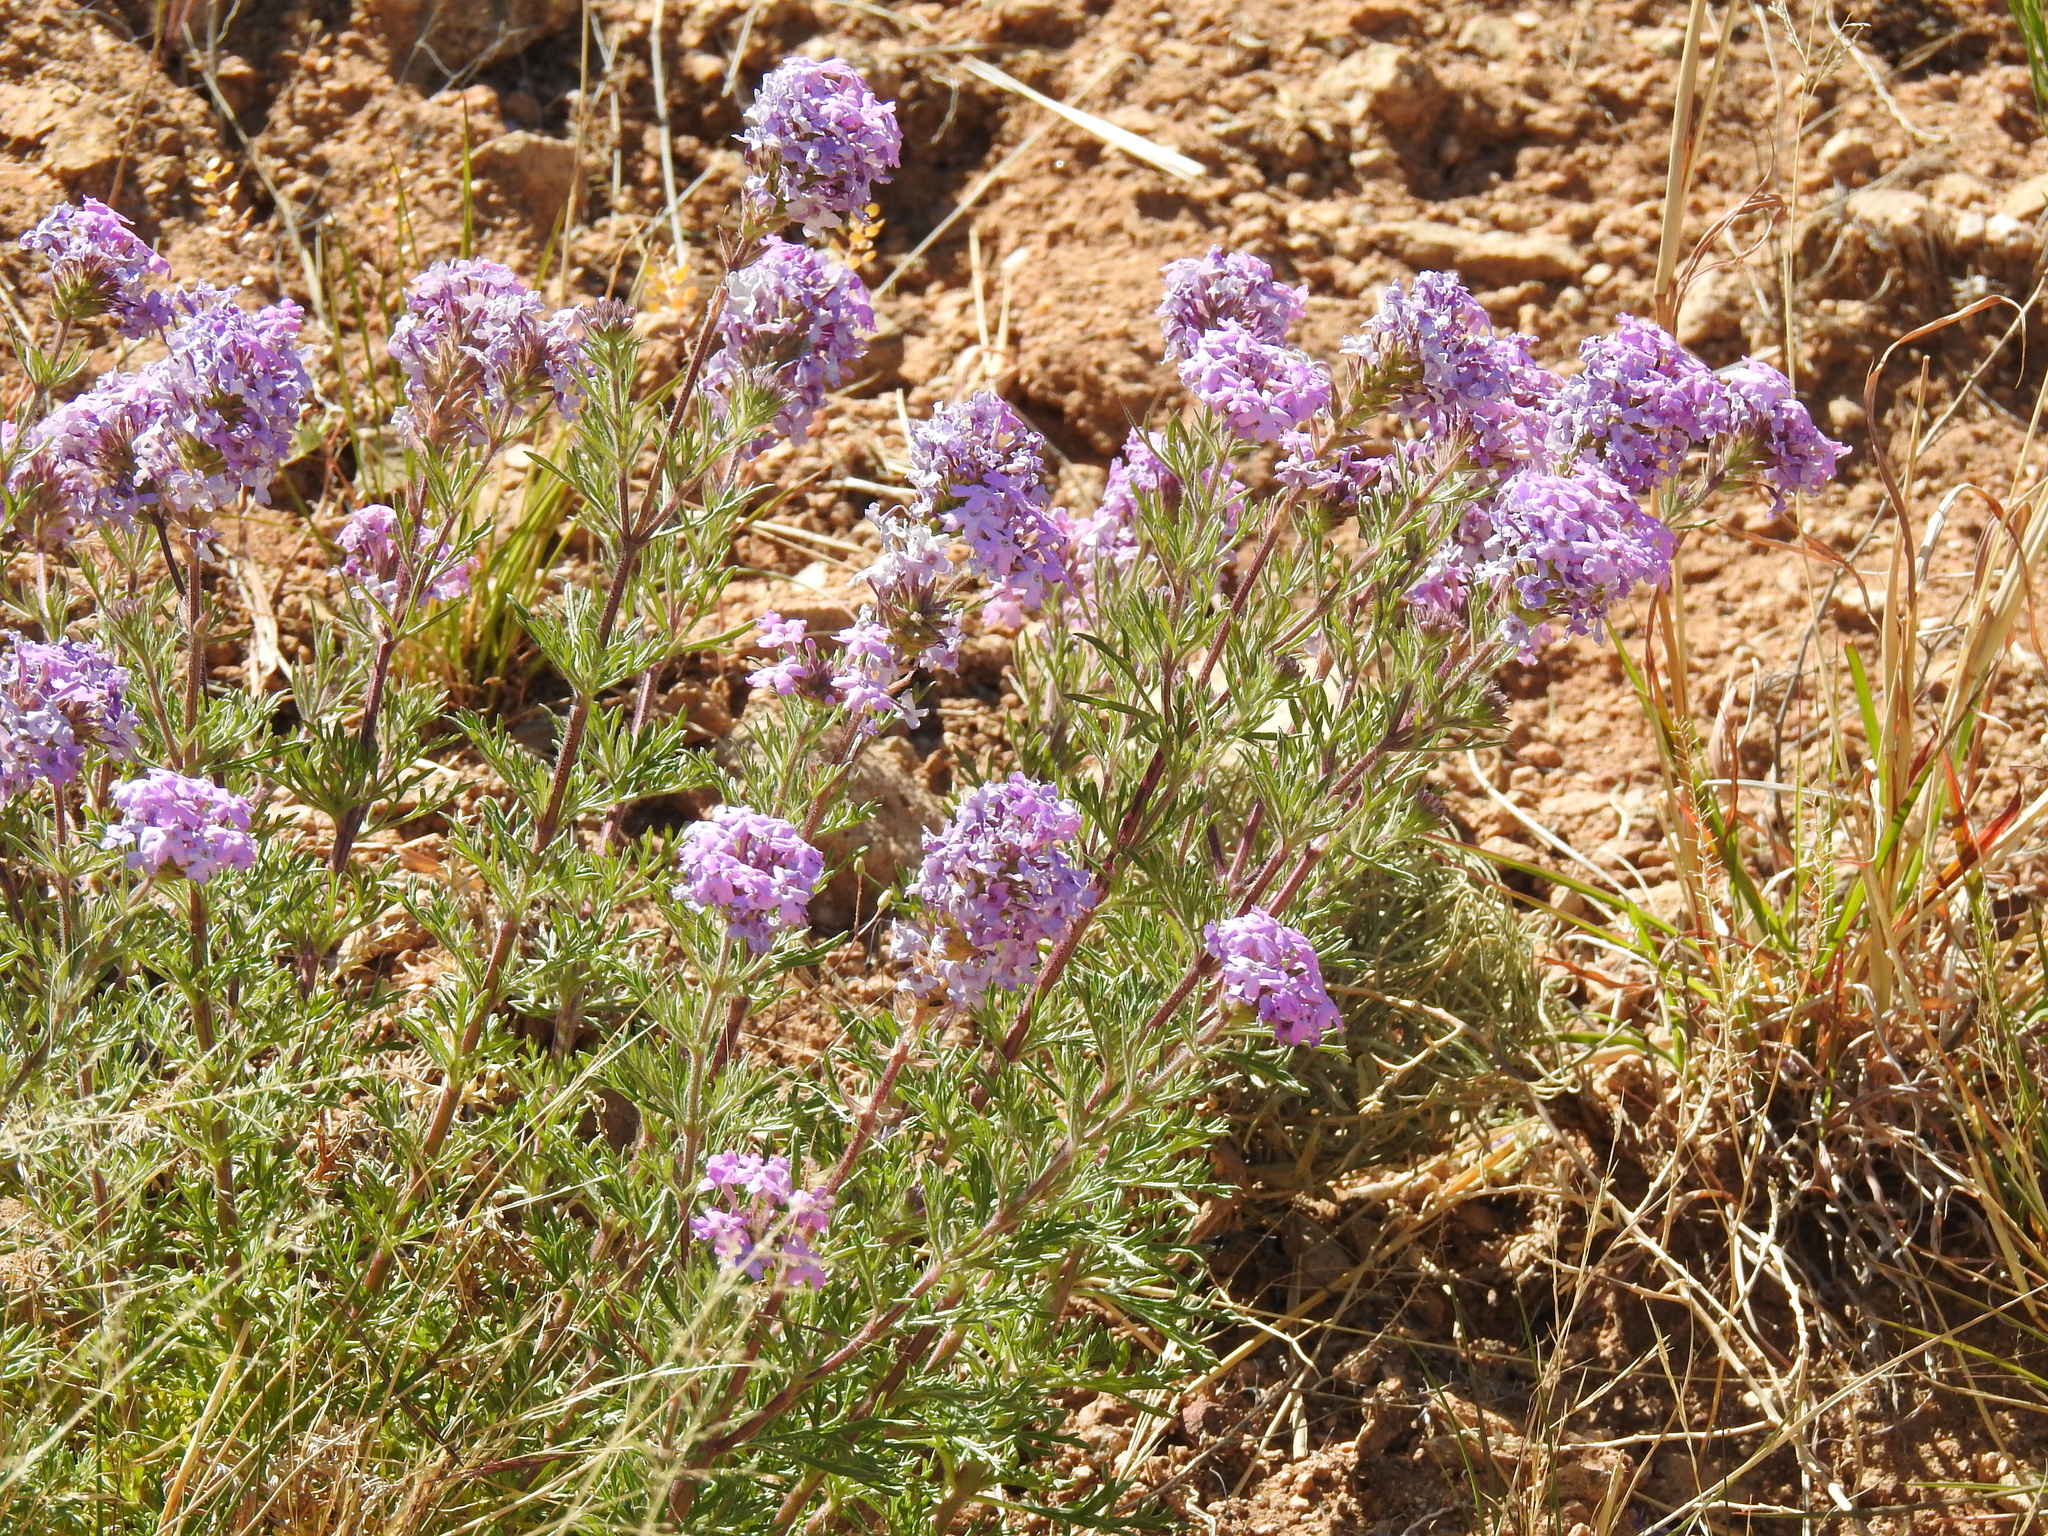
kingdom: Plantae
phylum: Tracheophyta
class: Magnoliopsida
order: Lamiales
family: Verbenaceae
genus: Verbena
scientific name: Verbena bipinnatifida
